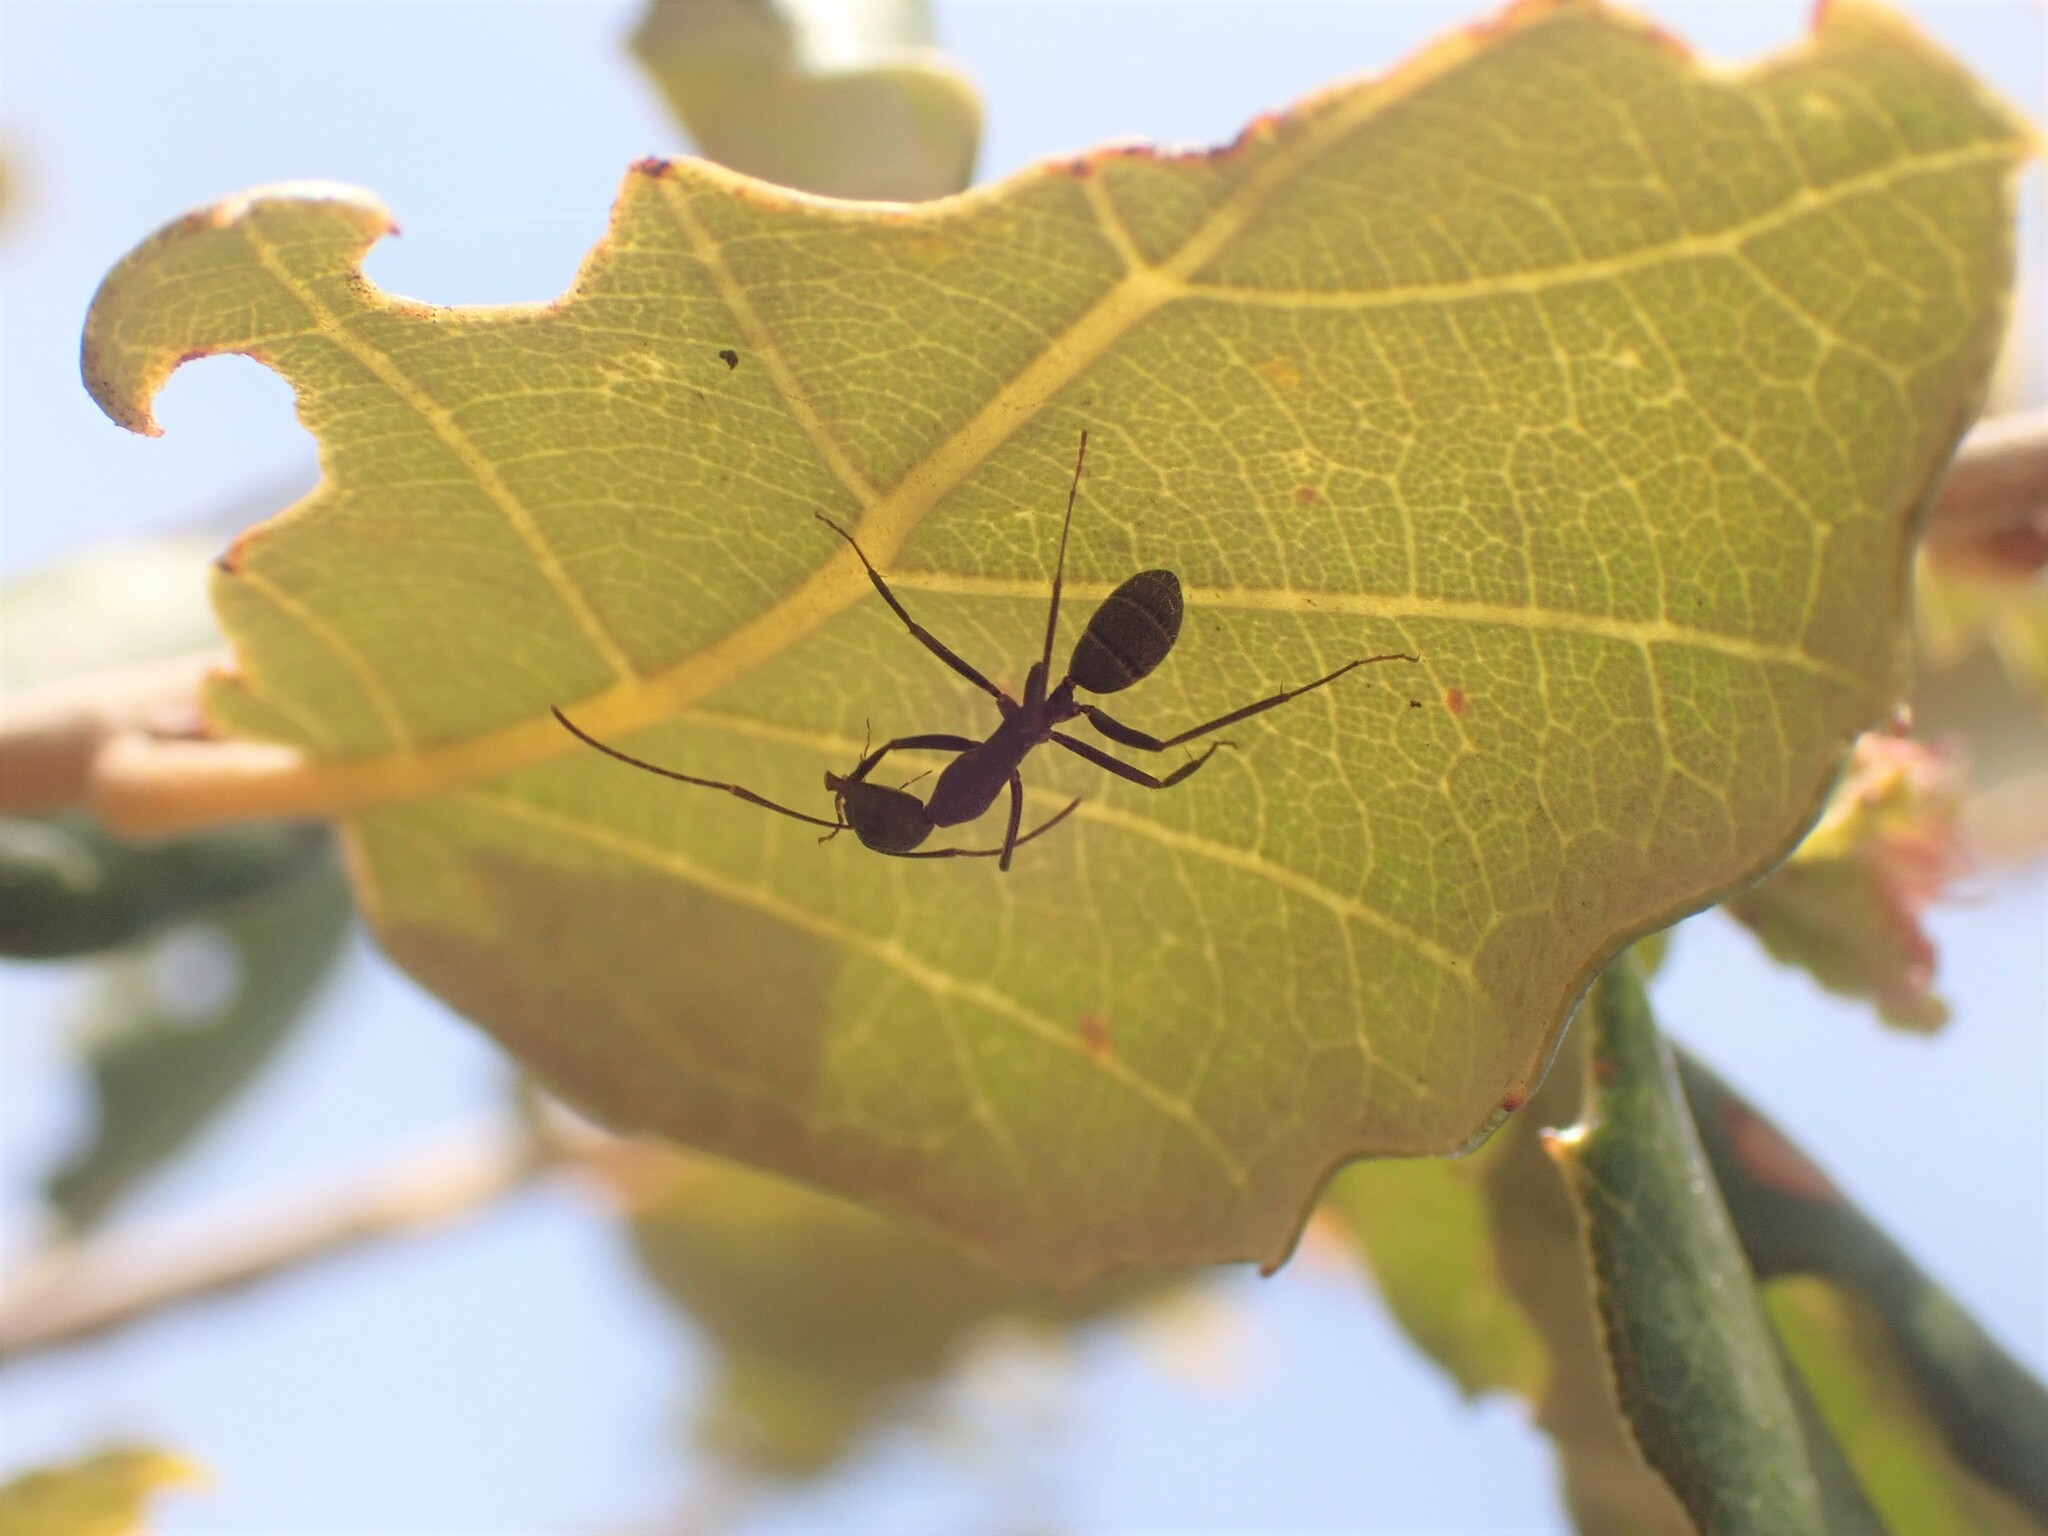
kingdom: Animalia
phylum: Arthropoda
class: Insecta
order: Hymenoptera
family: Formicidae
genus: Camponotus
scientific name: Camponotus cruentatus
